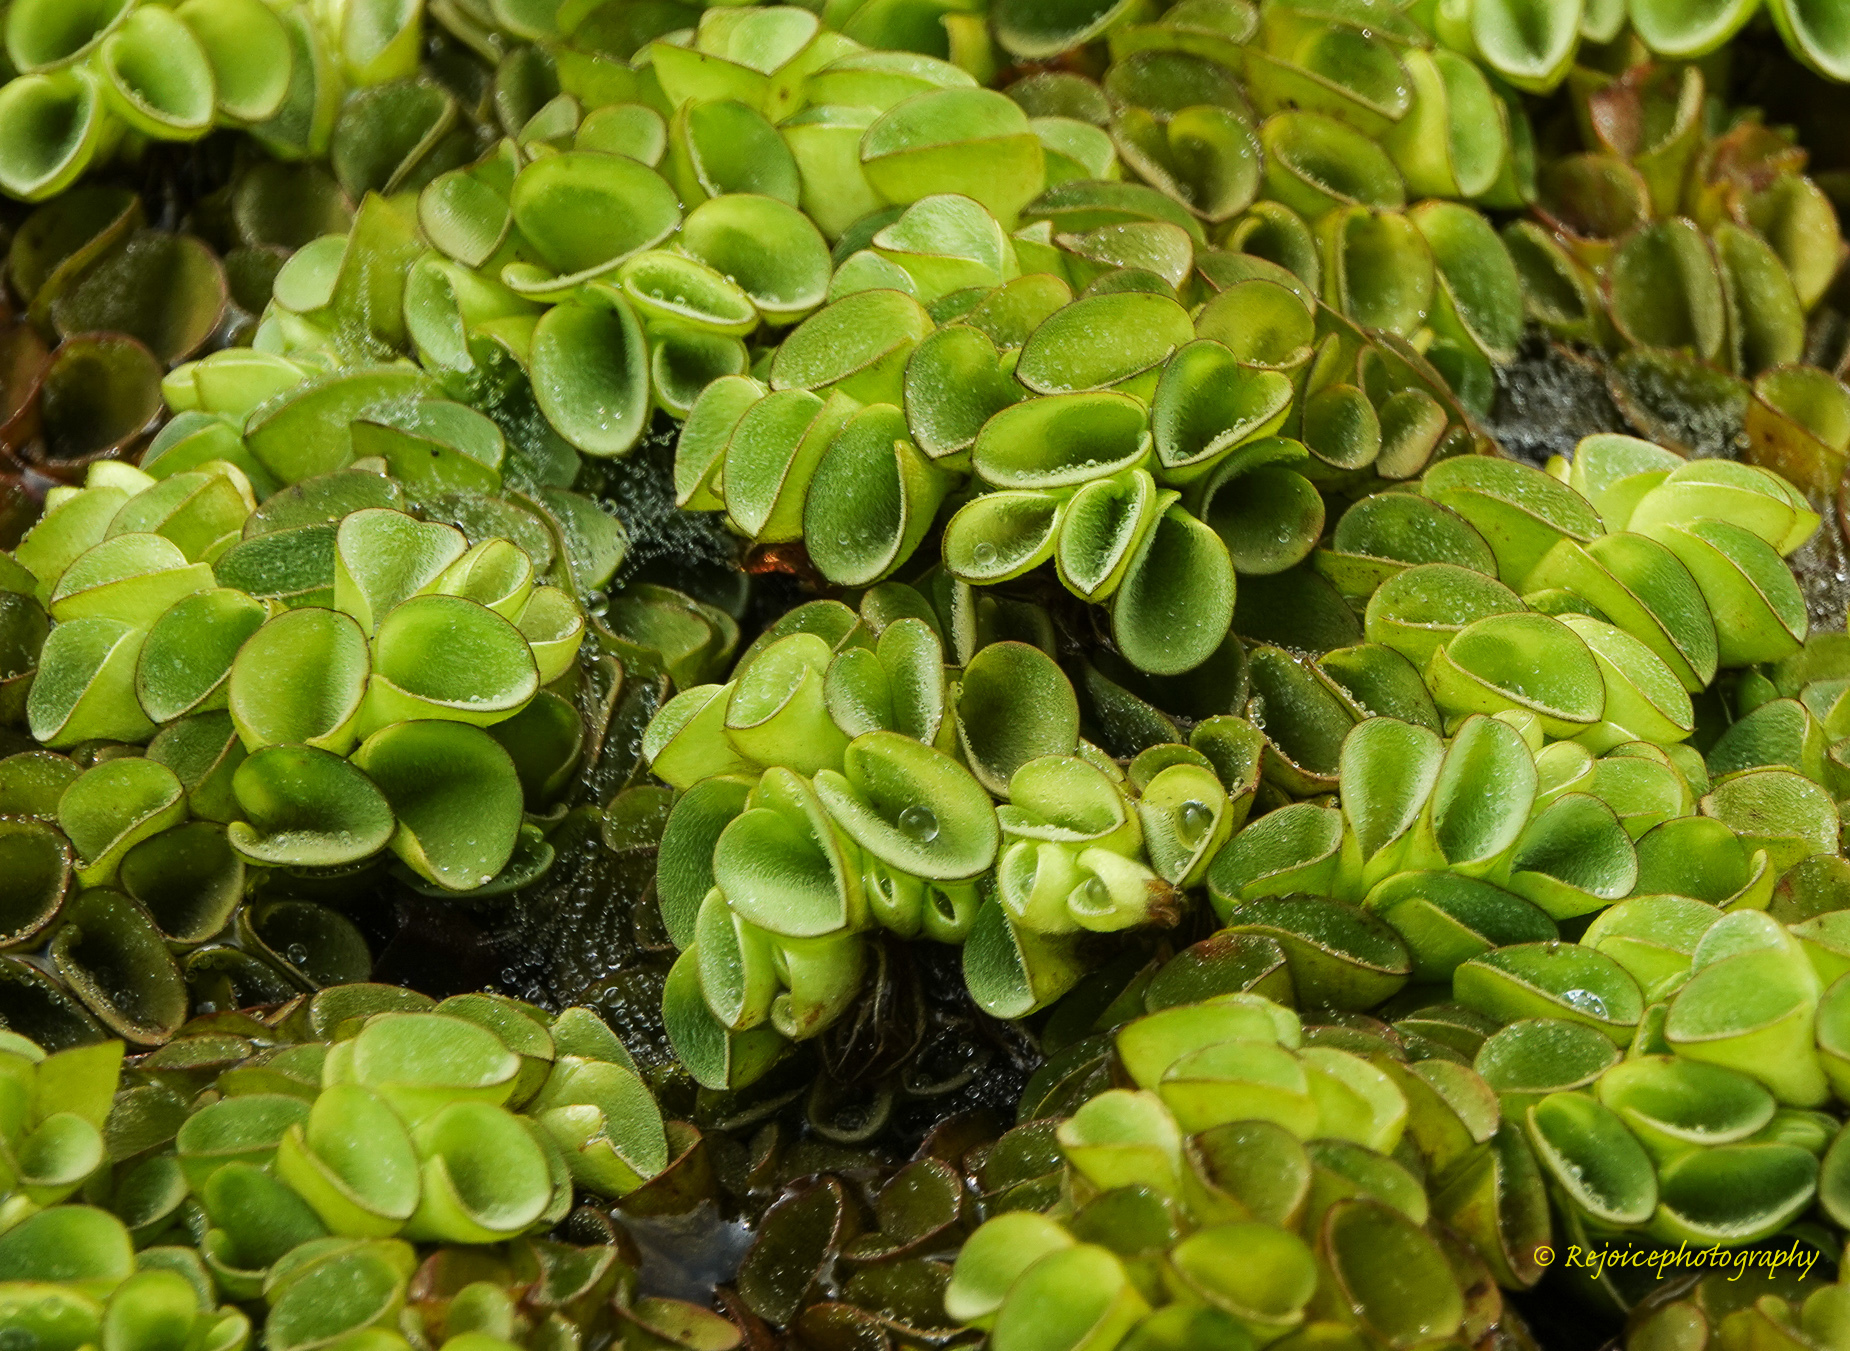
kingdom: Plantae
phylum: Tracheophyta
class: Polypodiopsida
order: Salviniales
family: Salviniaceae
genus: Salvinia
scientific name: Salvinia cucullata
